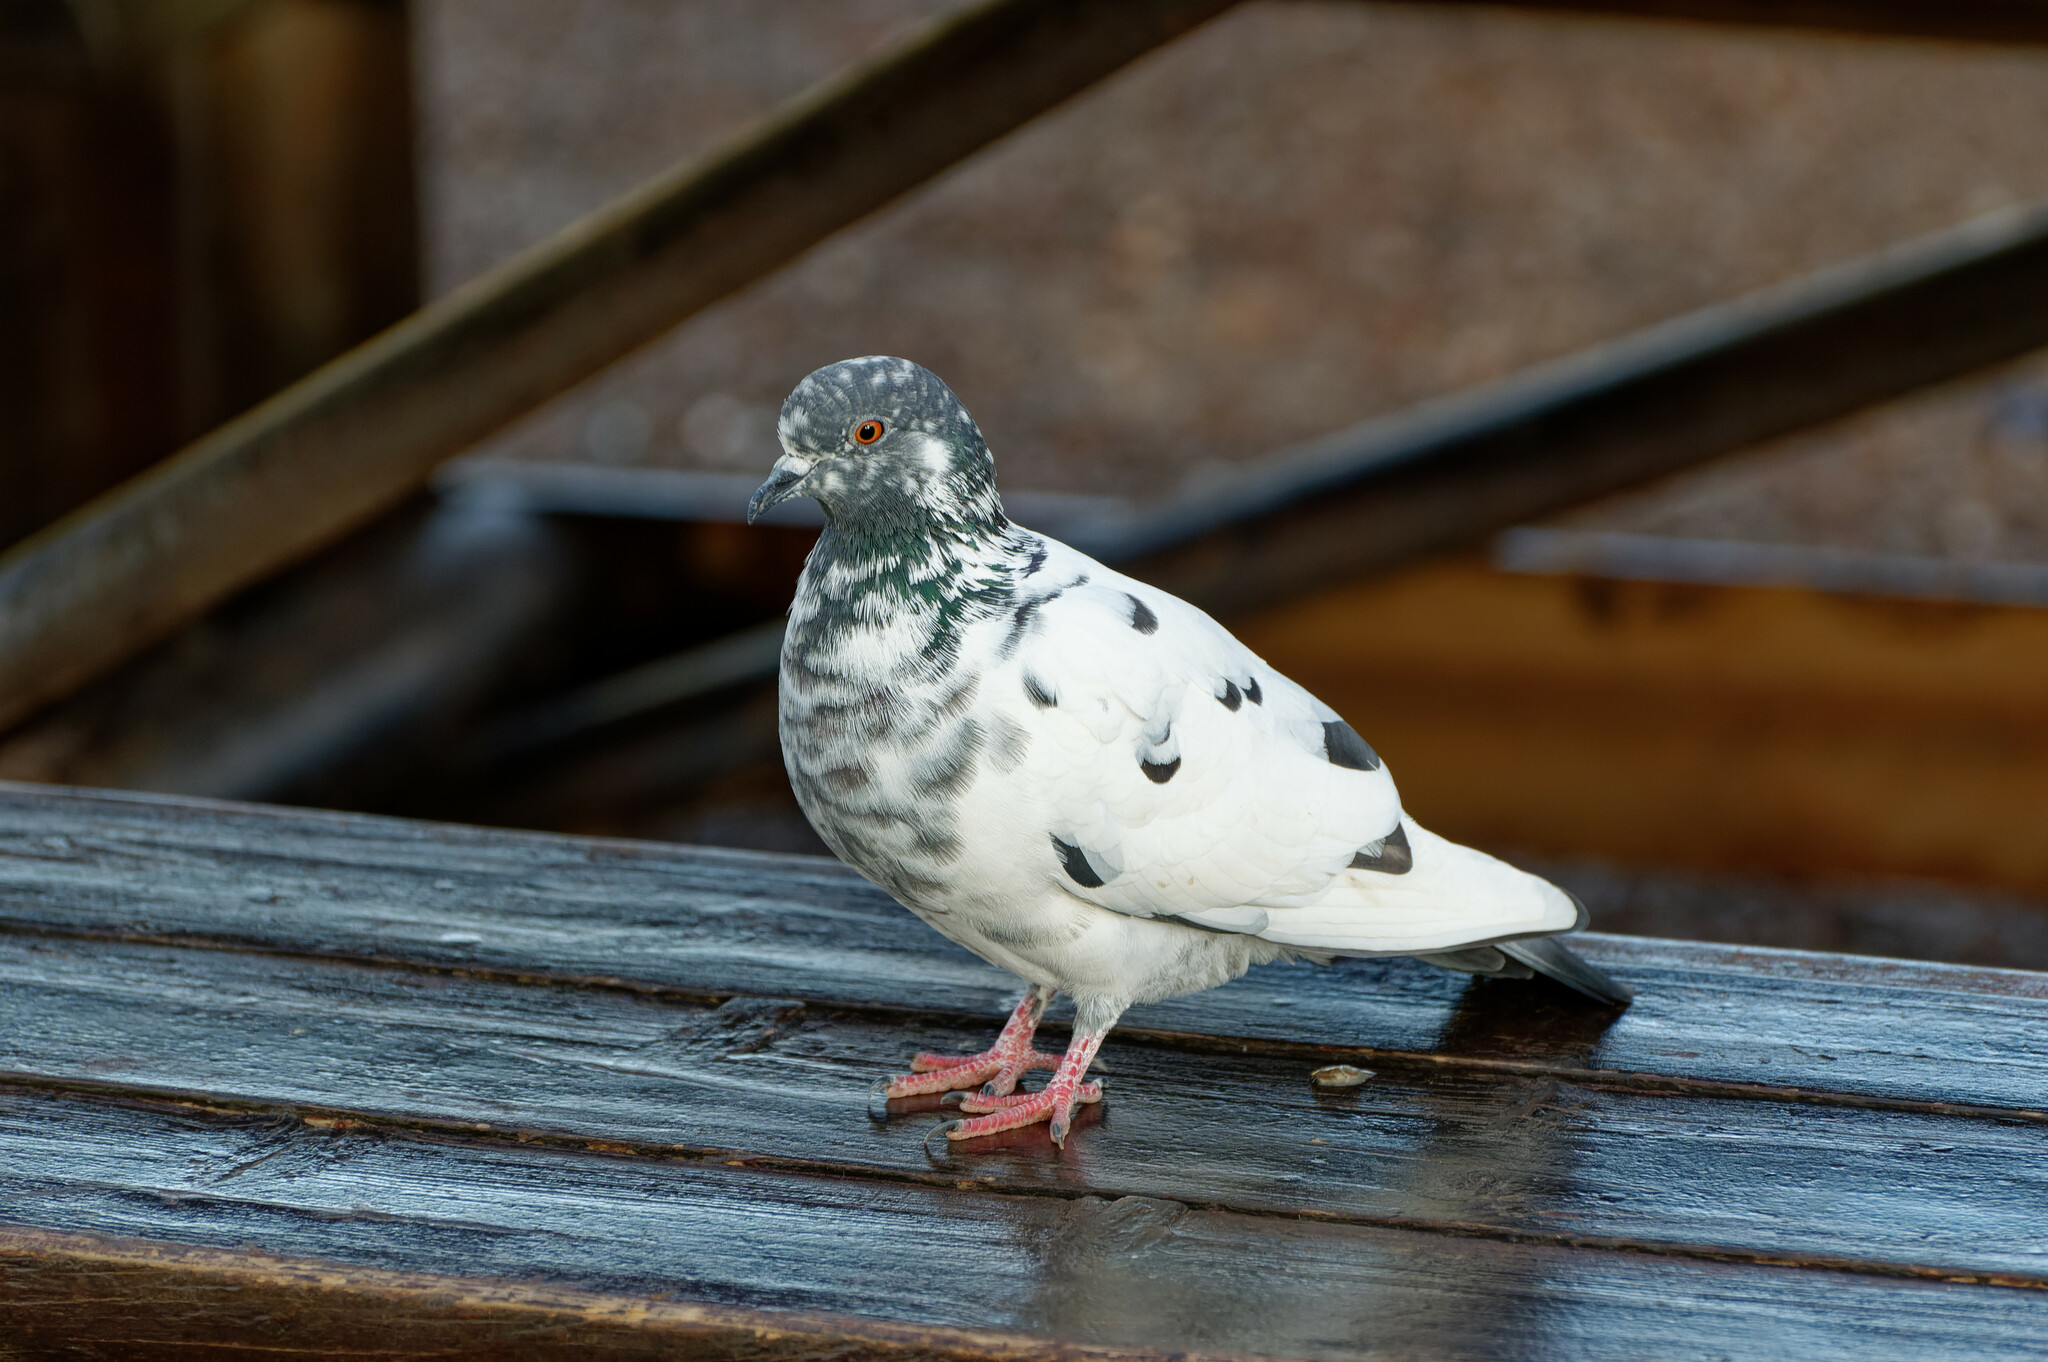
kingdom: Animalia
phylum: Chordata
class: Aves
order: Columbiformes
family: Columbidae
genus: Columba
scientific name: Columba livia
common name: Rock pigeon
